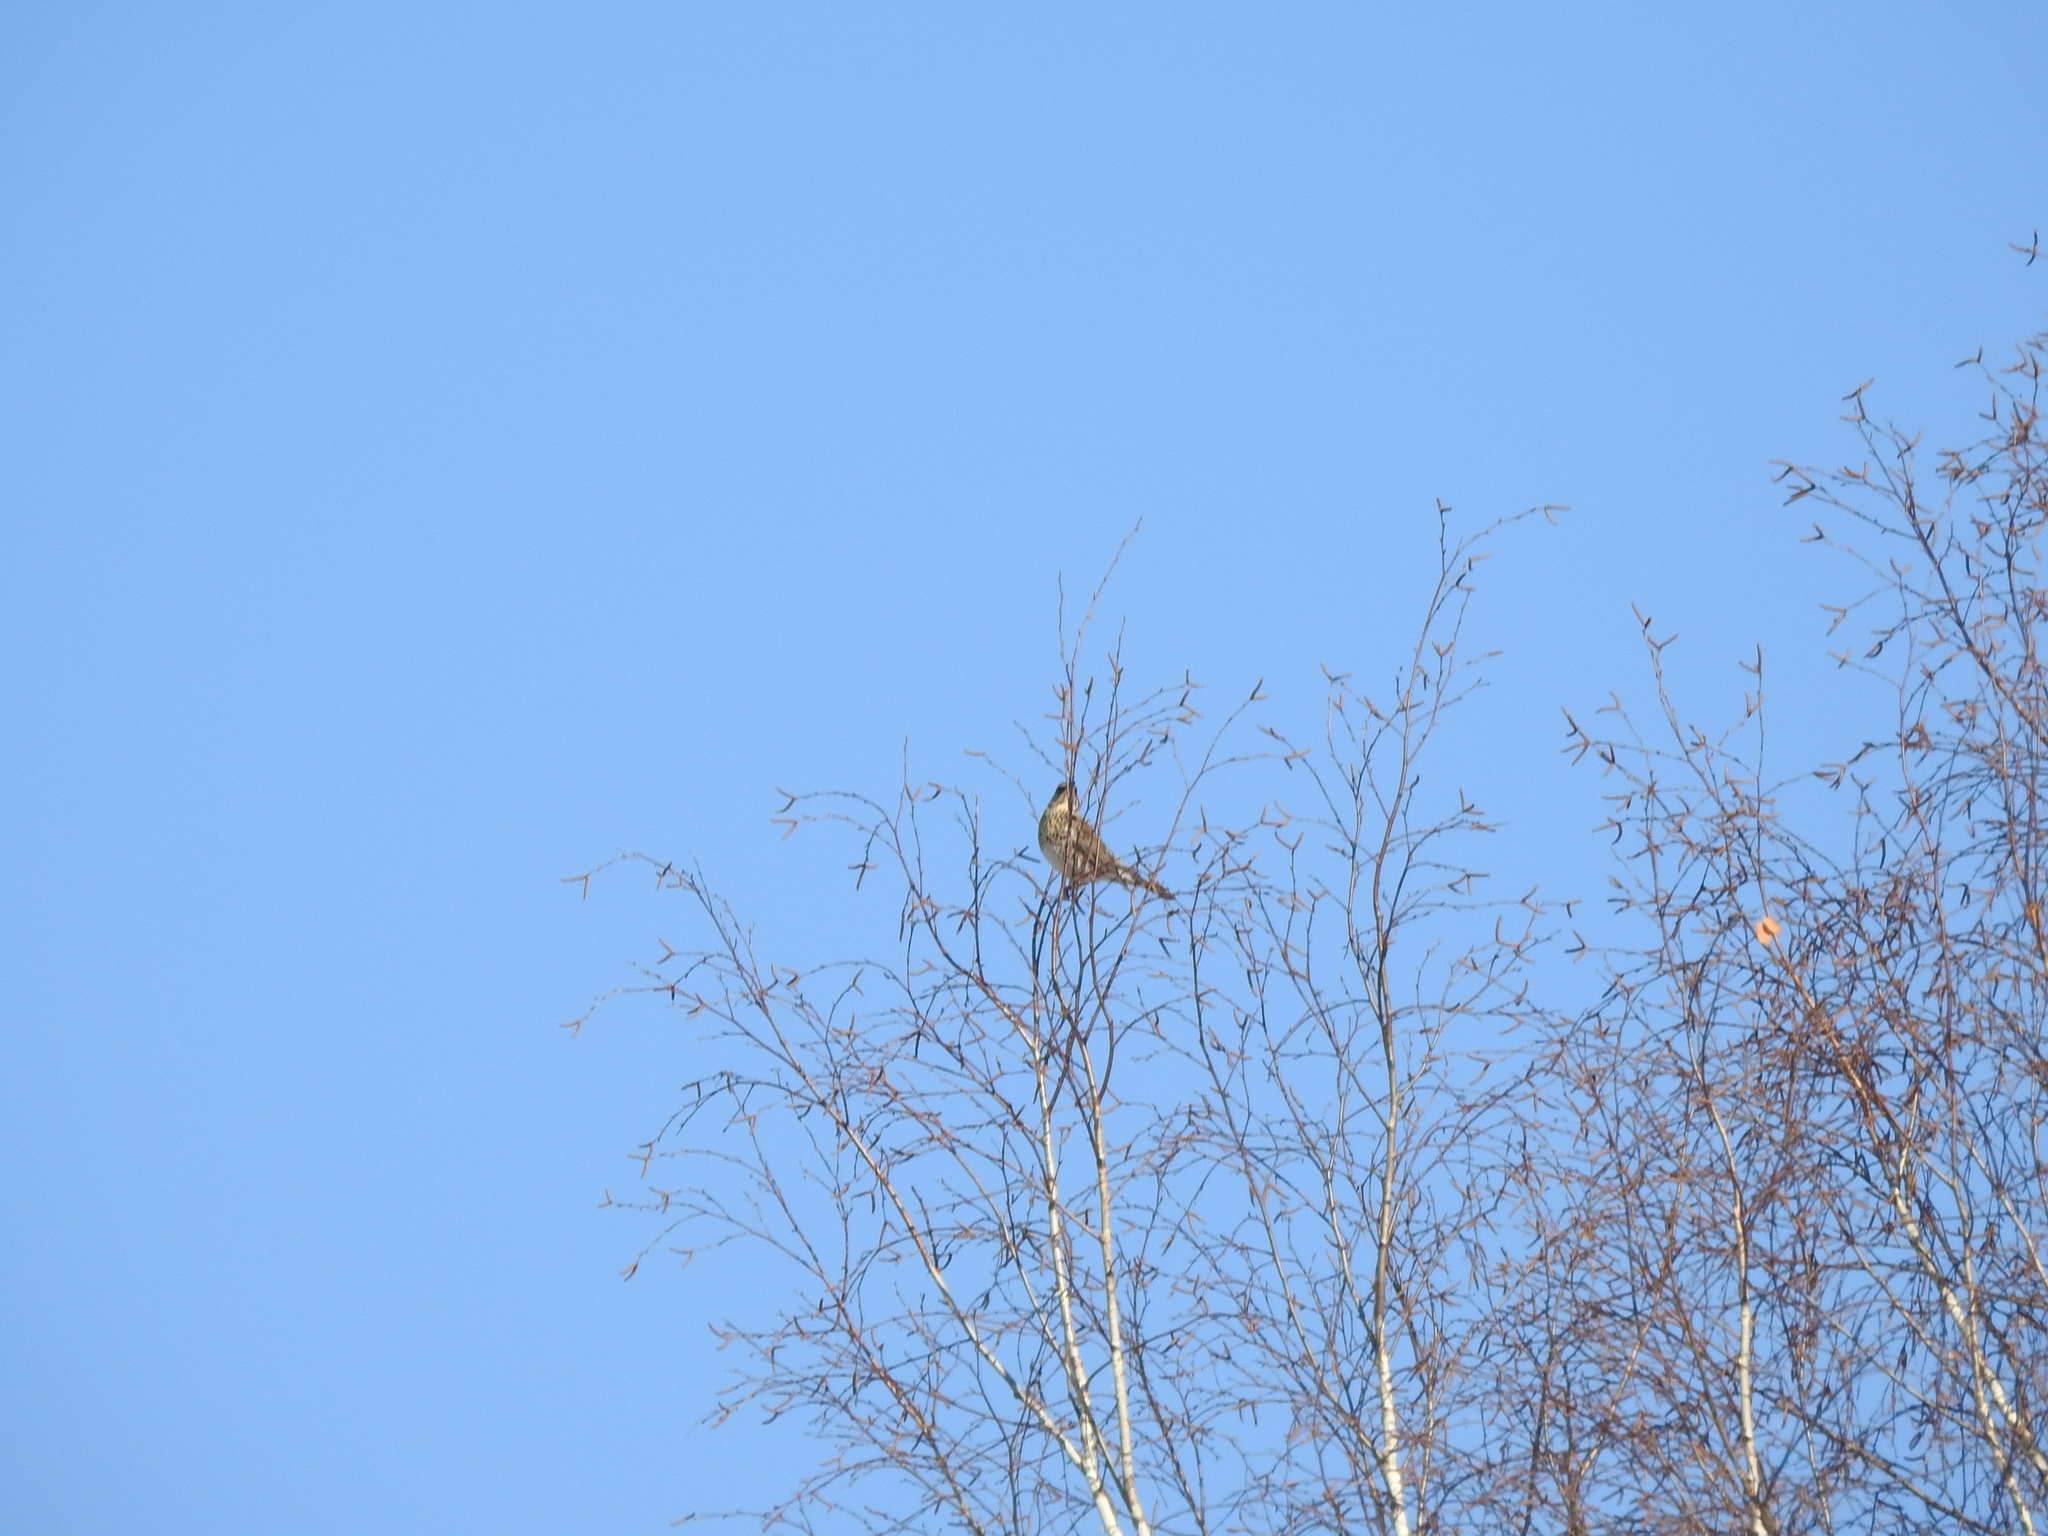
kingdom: Animalia
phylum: Chordata
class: Aves
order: Passeriformes
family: Turdidae
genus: Turdus
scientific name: Turdus pilaris
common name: Fieldfare
